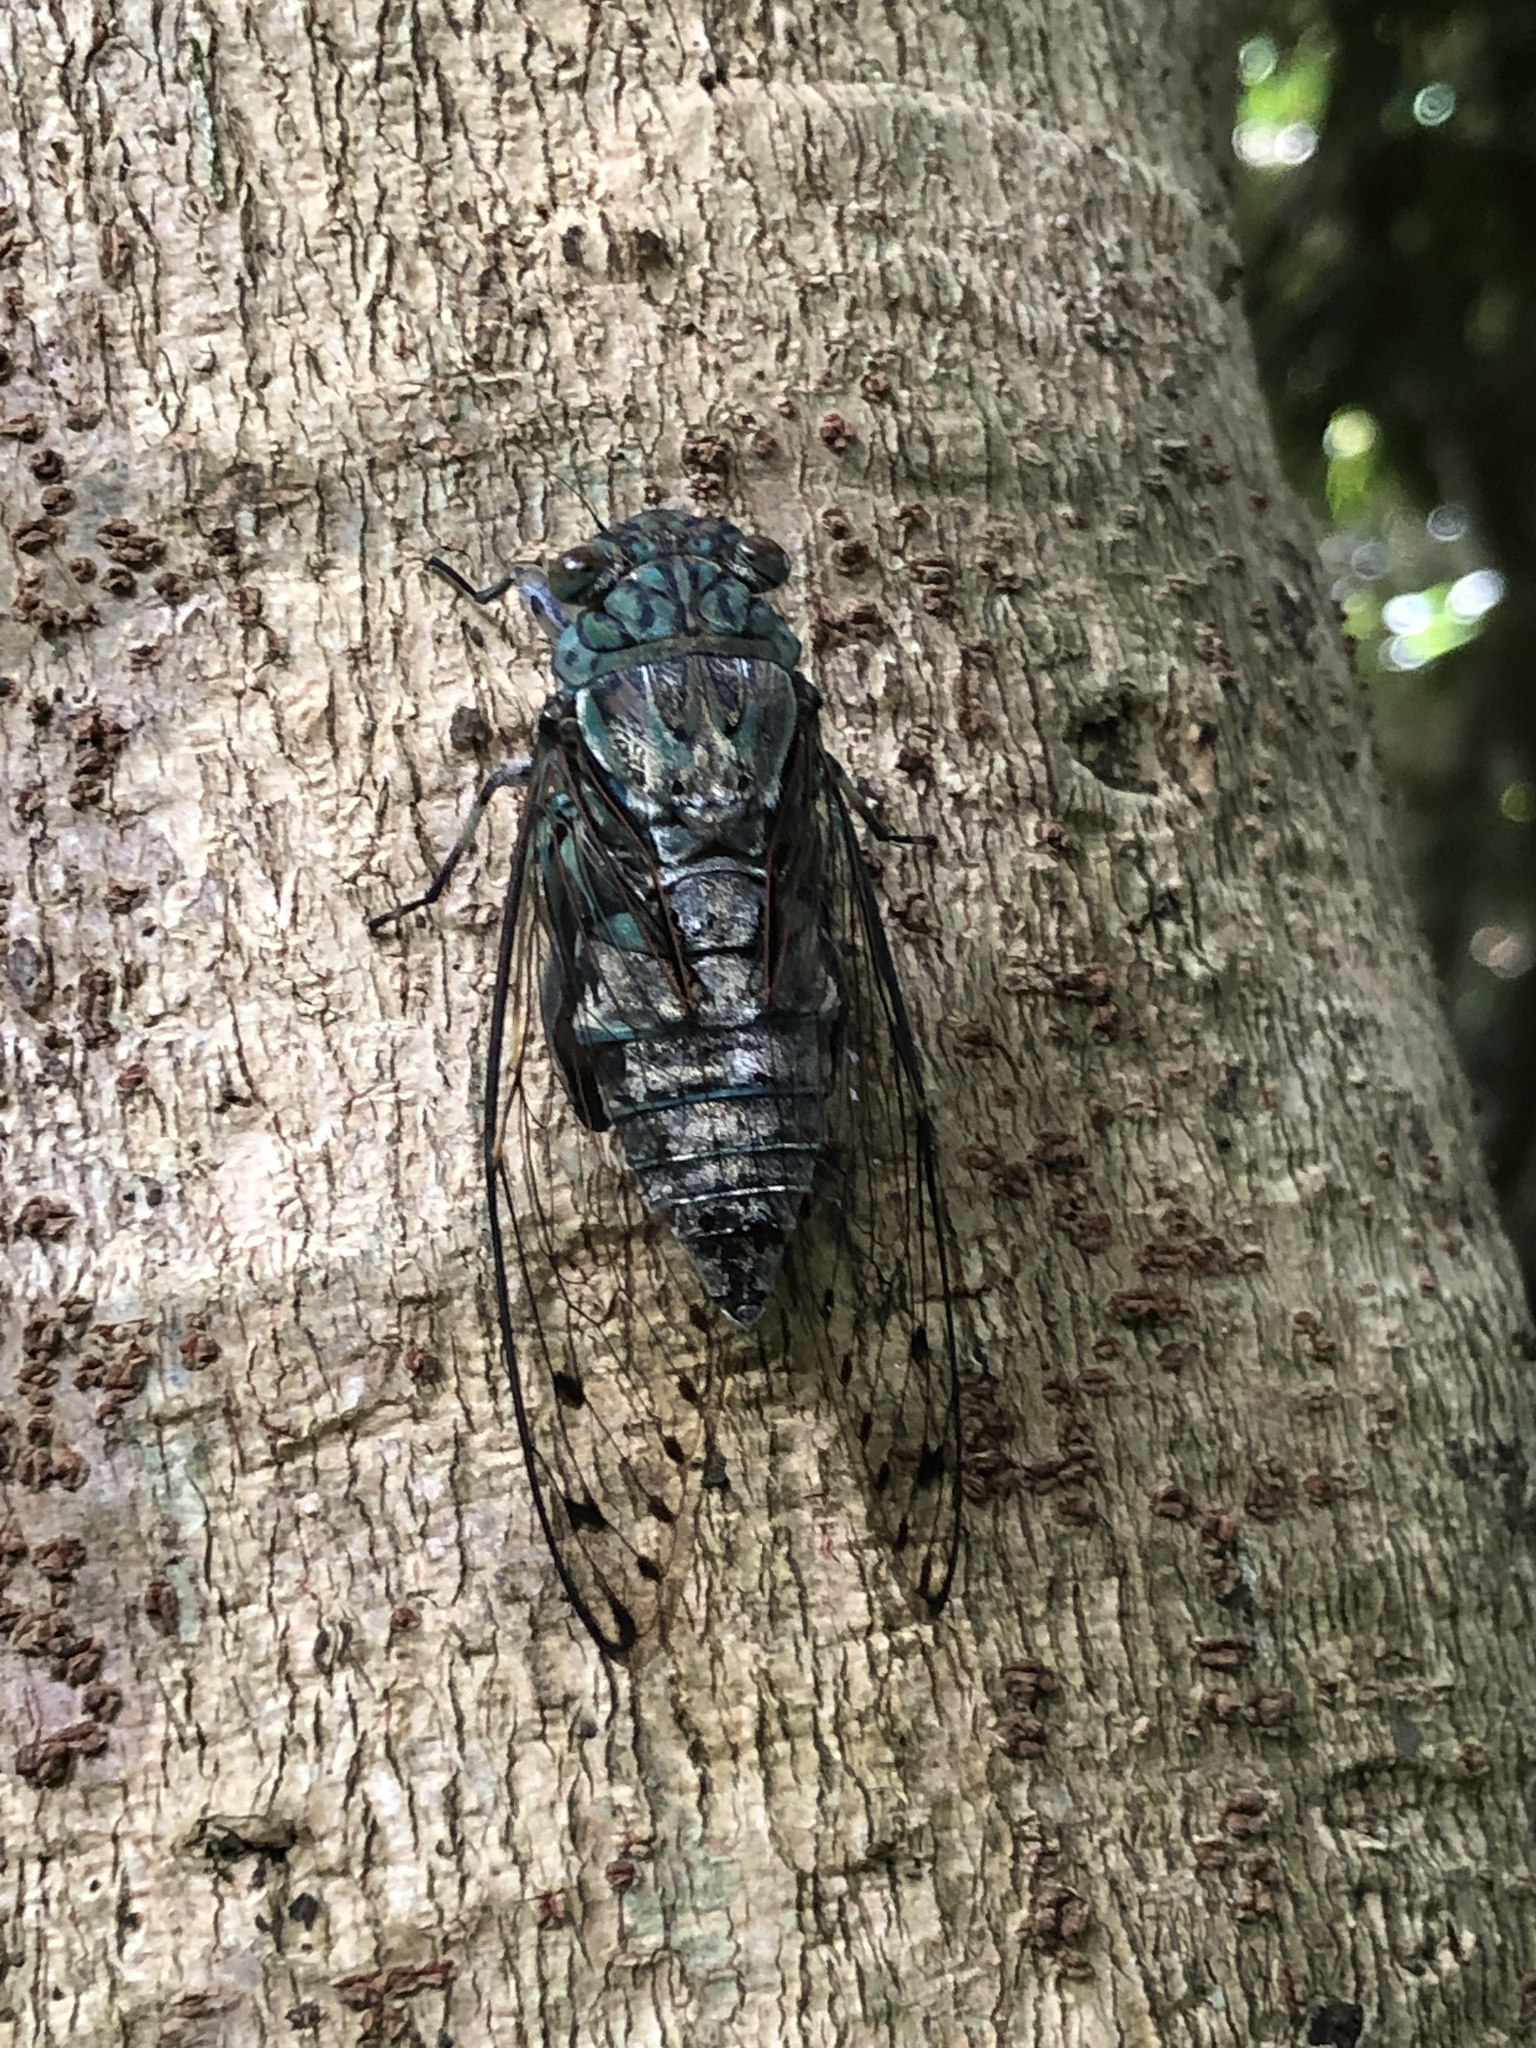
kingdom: Animalia
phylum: Arthropoda
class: Insecta
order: Hemiptera
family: Cicadidae
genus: Meimuna
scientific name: Meimuna oshimensis
